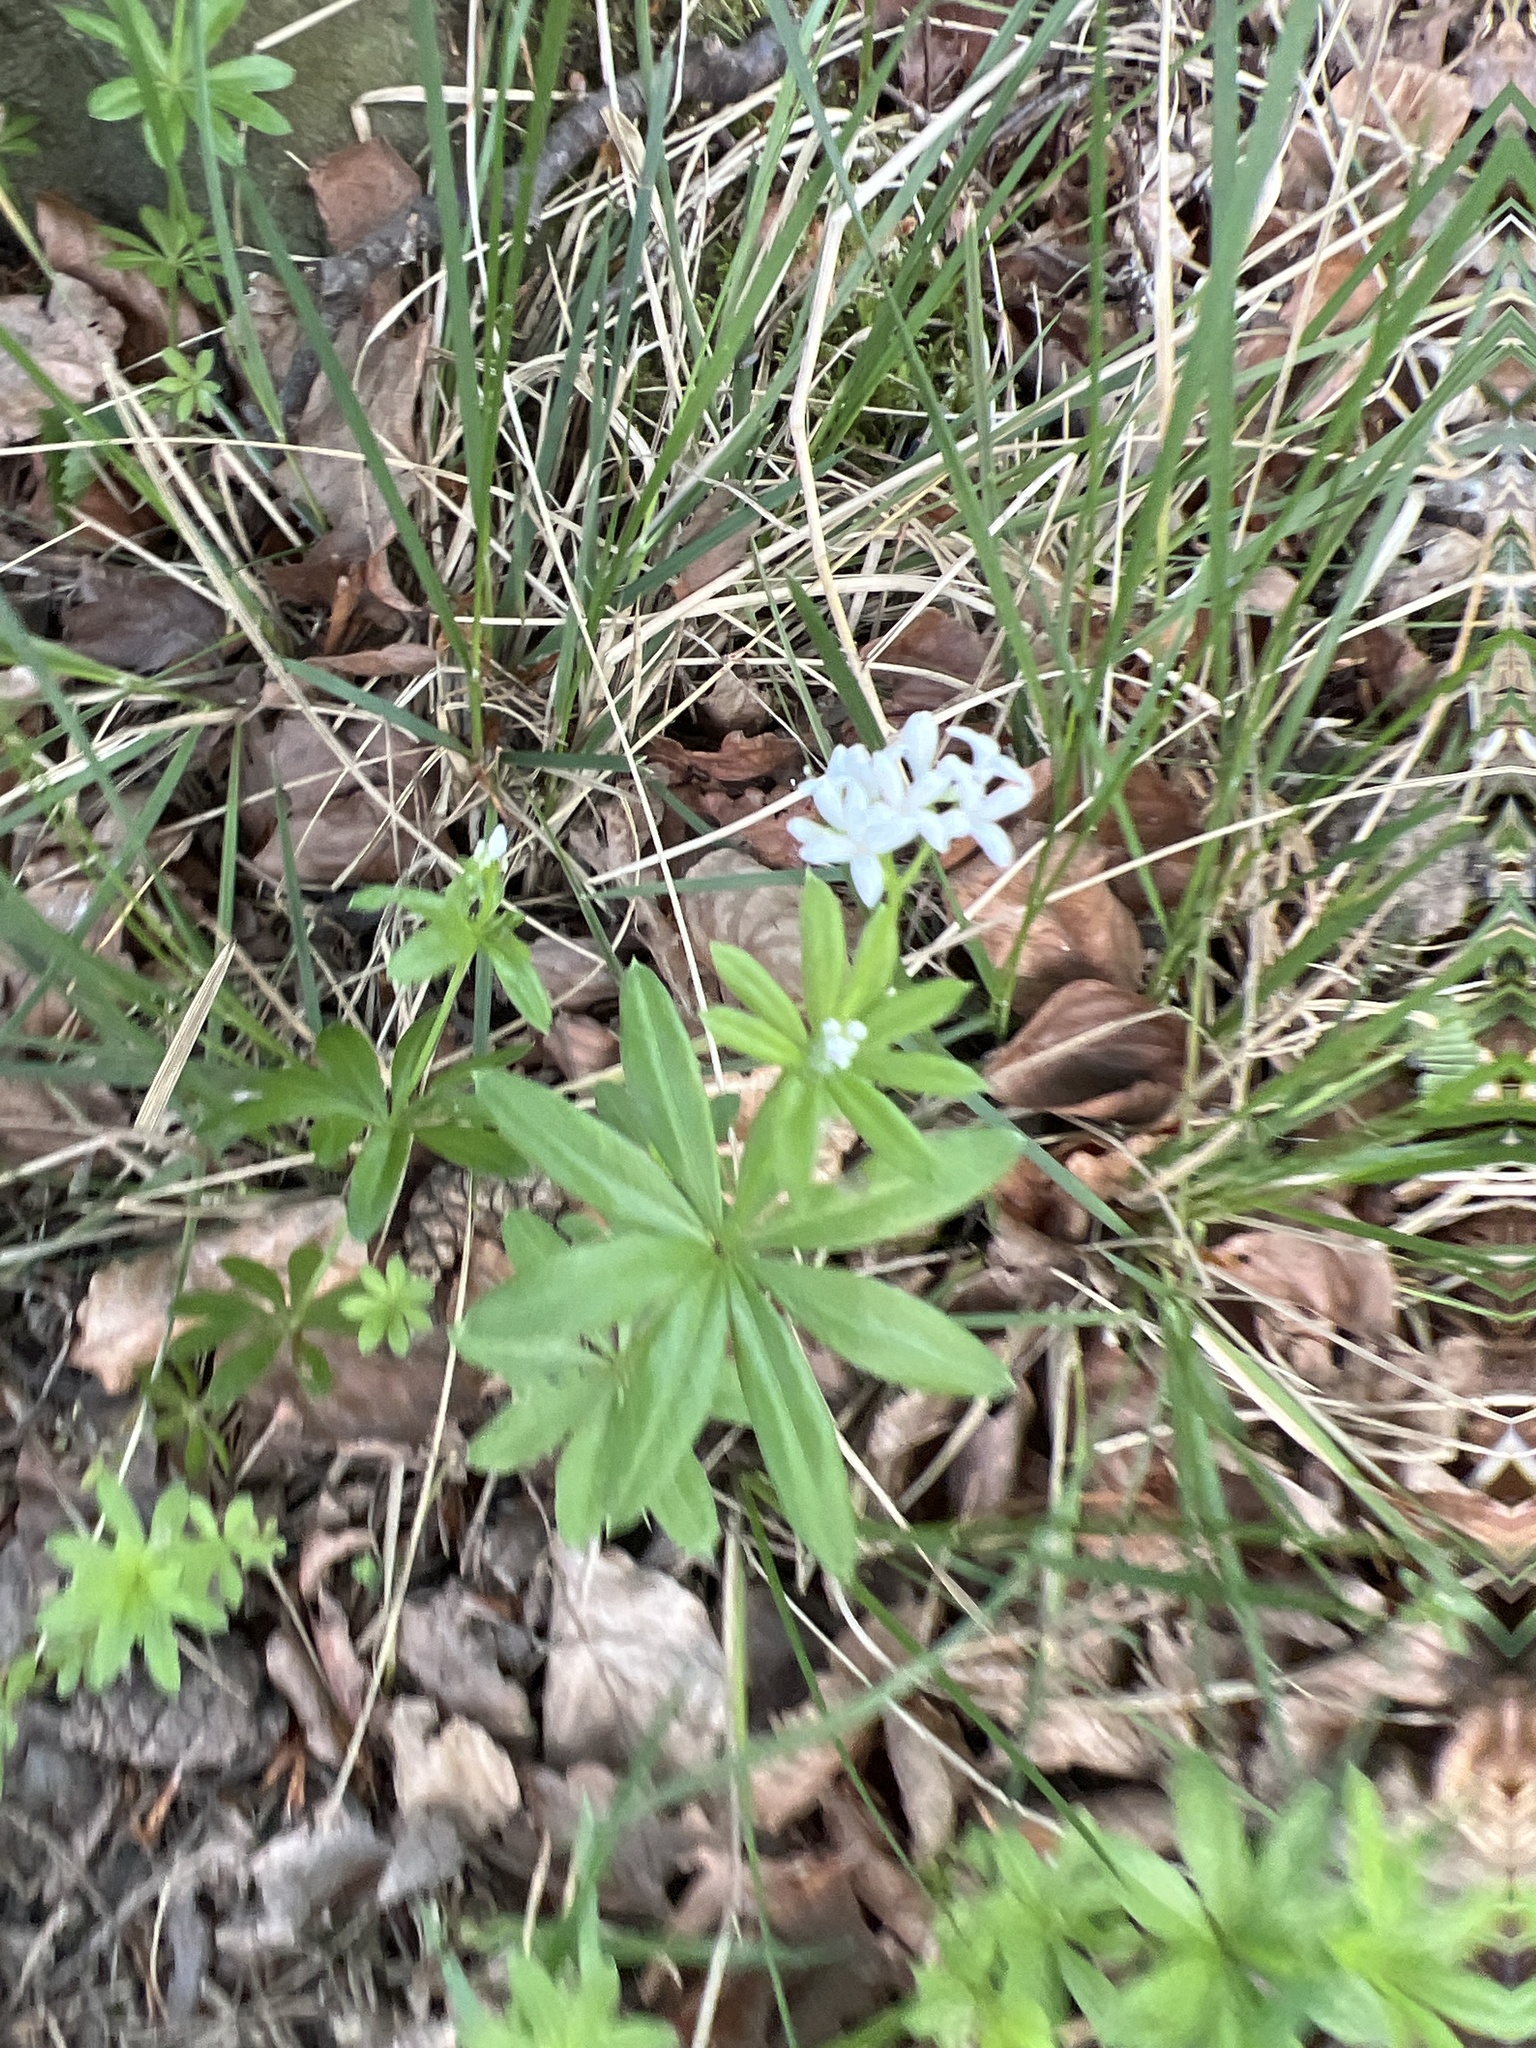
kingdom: Plantae
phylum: Tracheophyta
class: Magnoliopsida
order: Gentianales
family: Rubiaceae
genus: Galium
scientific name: Galium odoratum
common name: Sweet woodruff
